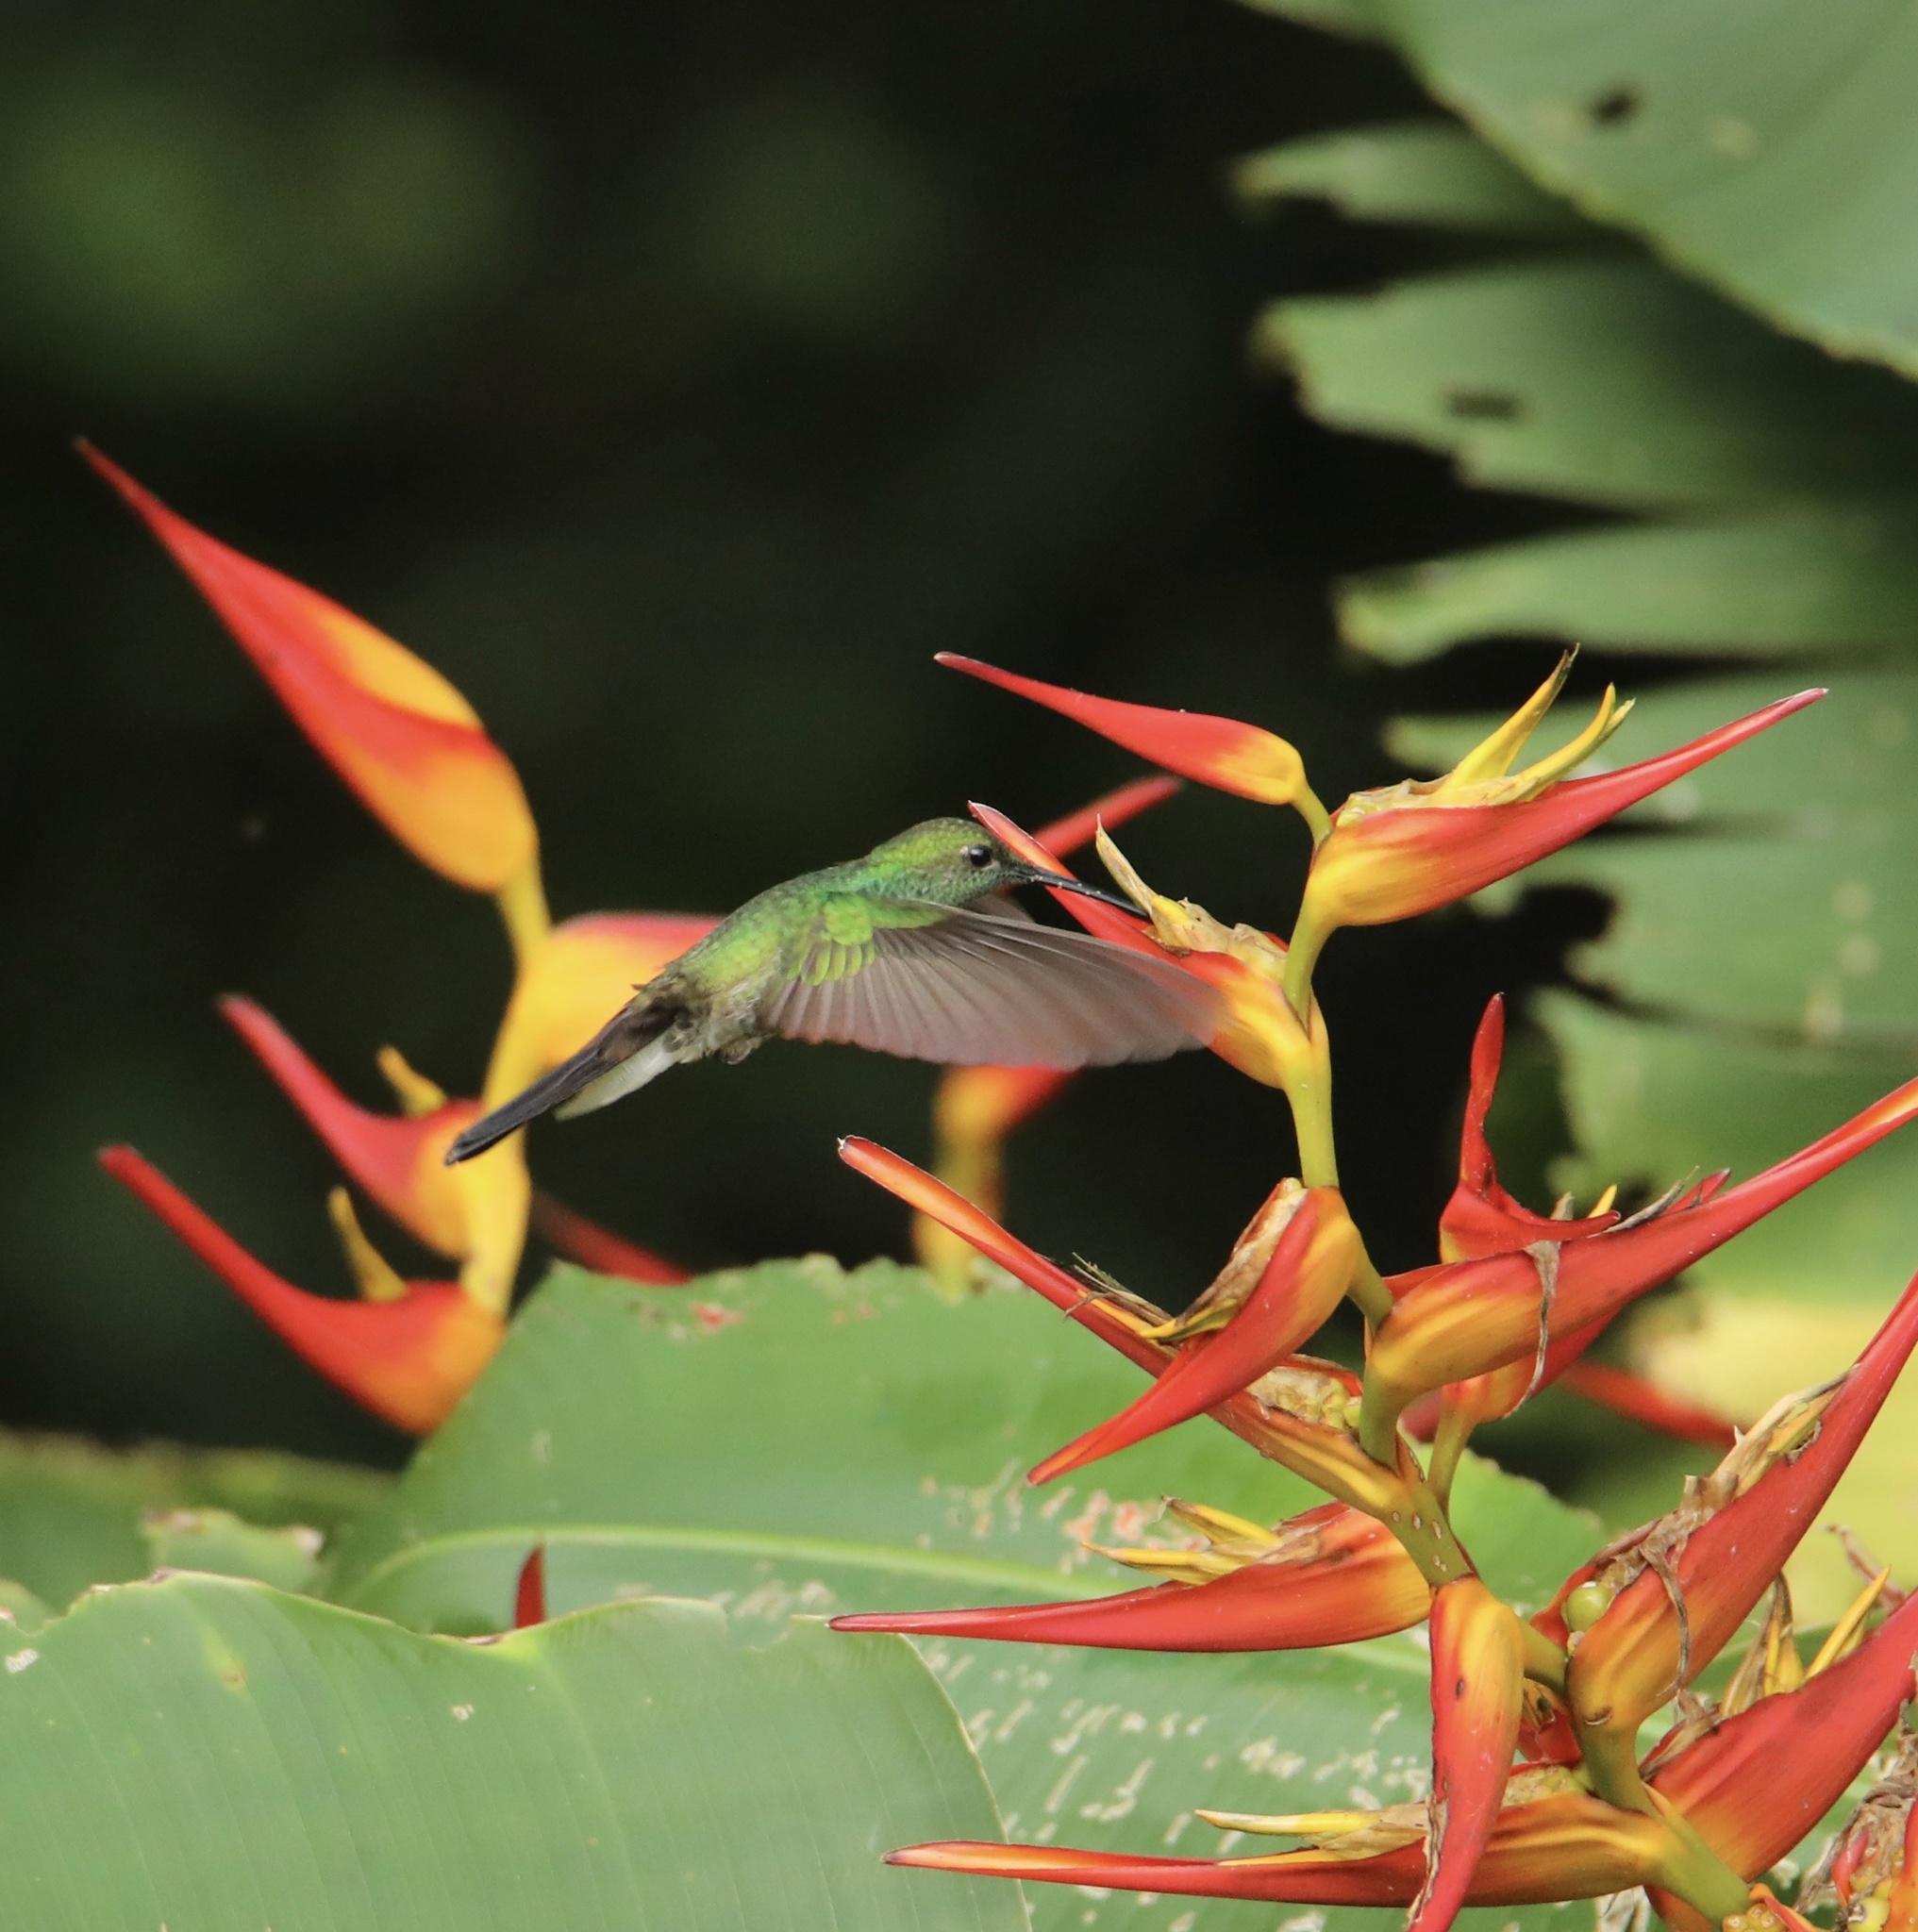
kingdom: Animalia
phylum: Chordata
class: Aves
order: Apodiformes
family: Trochilidae
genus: Chalybura
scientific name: Chalybura buffonii
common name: White-vented plumeleteer
